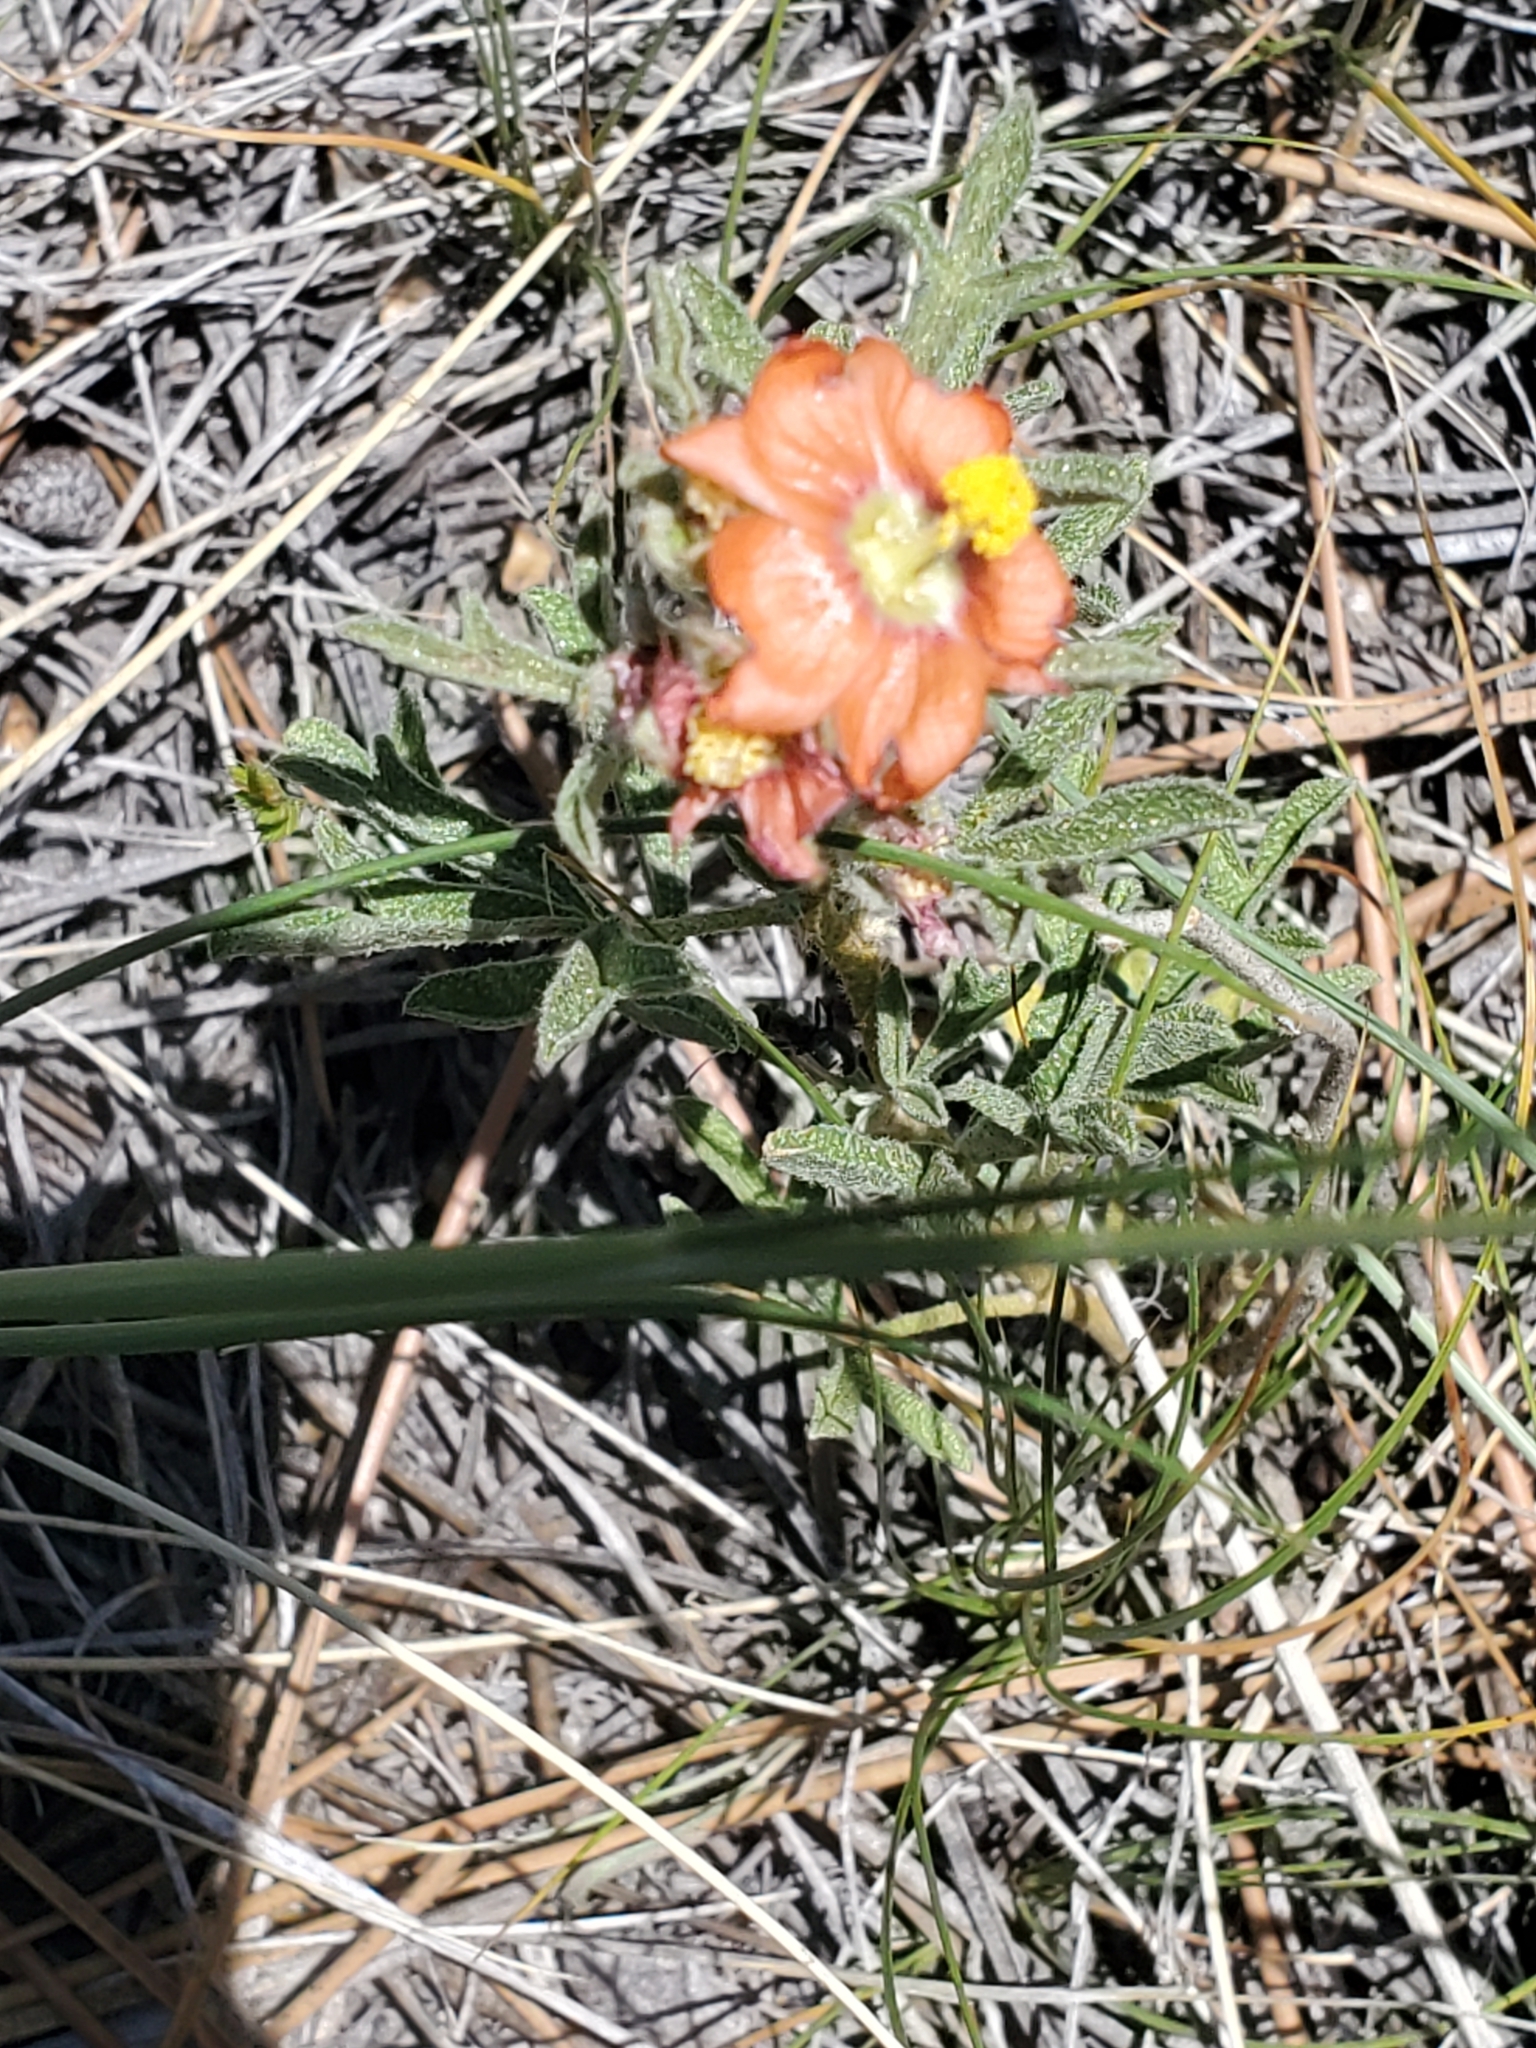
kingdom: Plantae
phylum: Tracheophyta
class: Magnoliopsida
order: Malvales
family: Malvaceae
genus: Sphaeralcea
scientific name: Sphaeralcea coccinea
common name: Moss-rose
